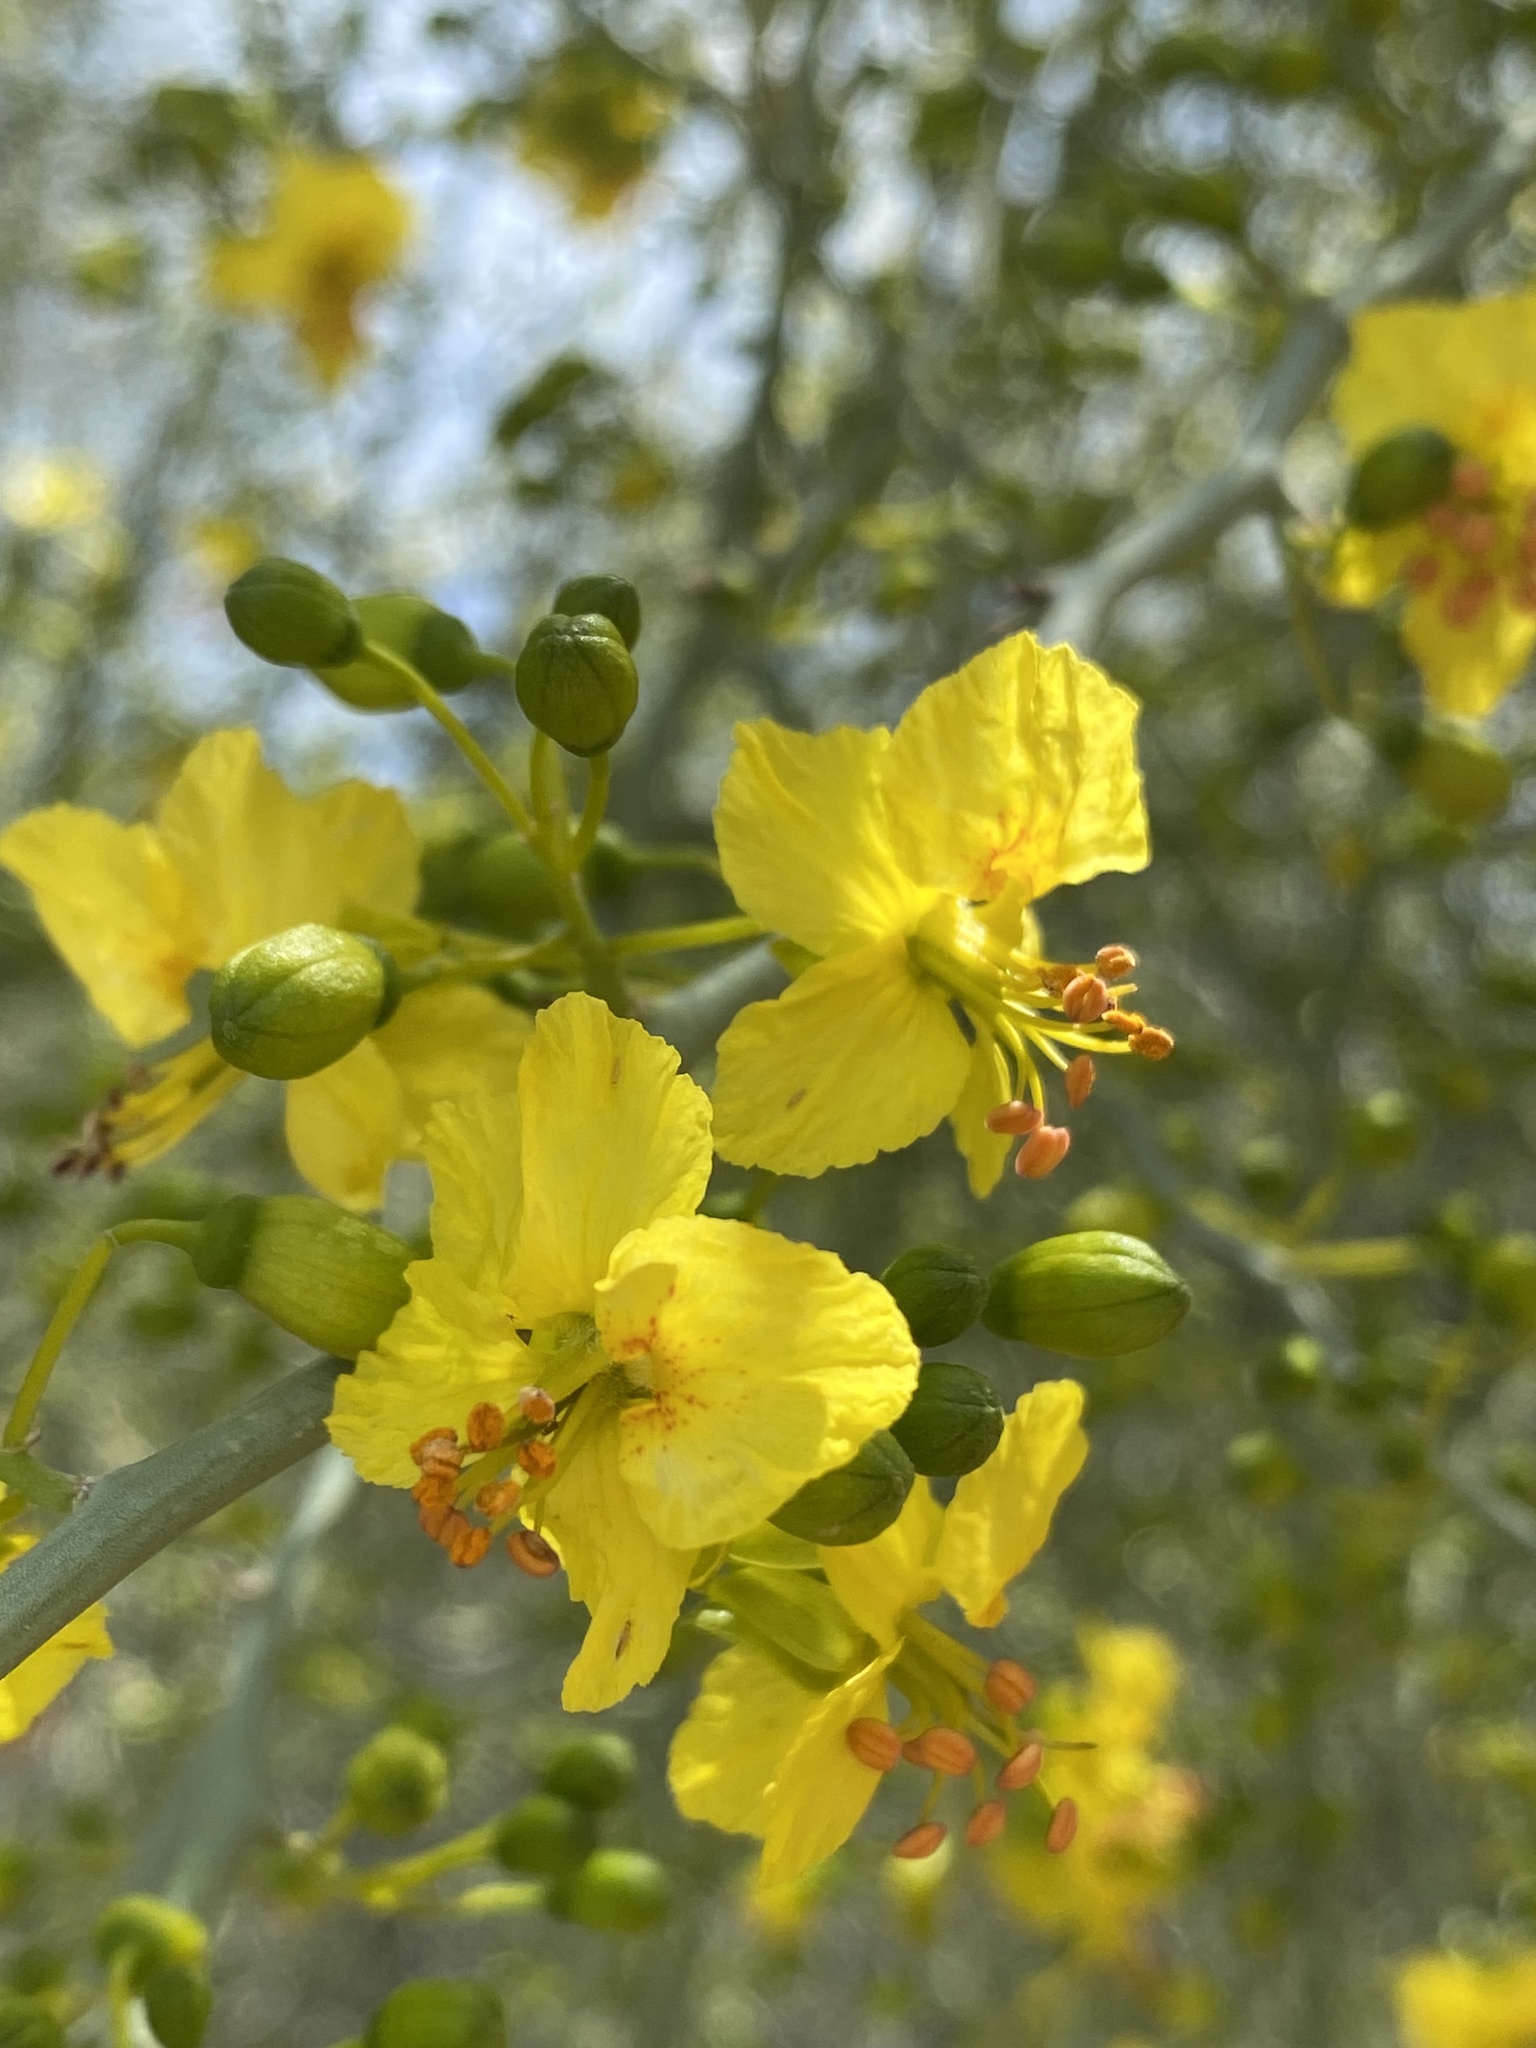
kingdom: Plantae
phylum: Tracheophyta
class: Magnoliopsida
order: Fabales
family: Fabaceae
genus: Parkinsonia
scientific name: Parkinsonia florida
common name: Blue paloverde
